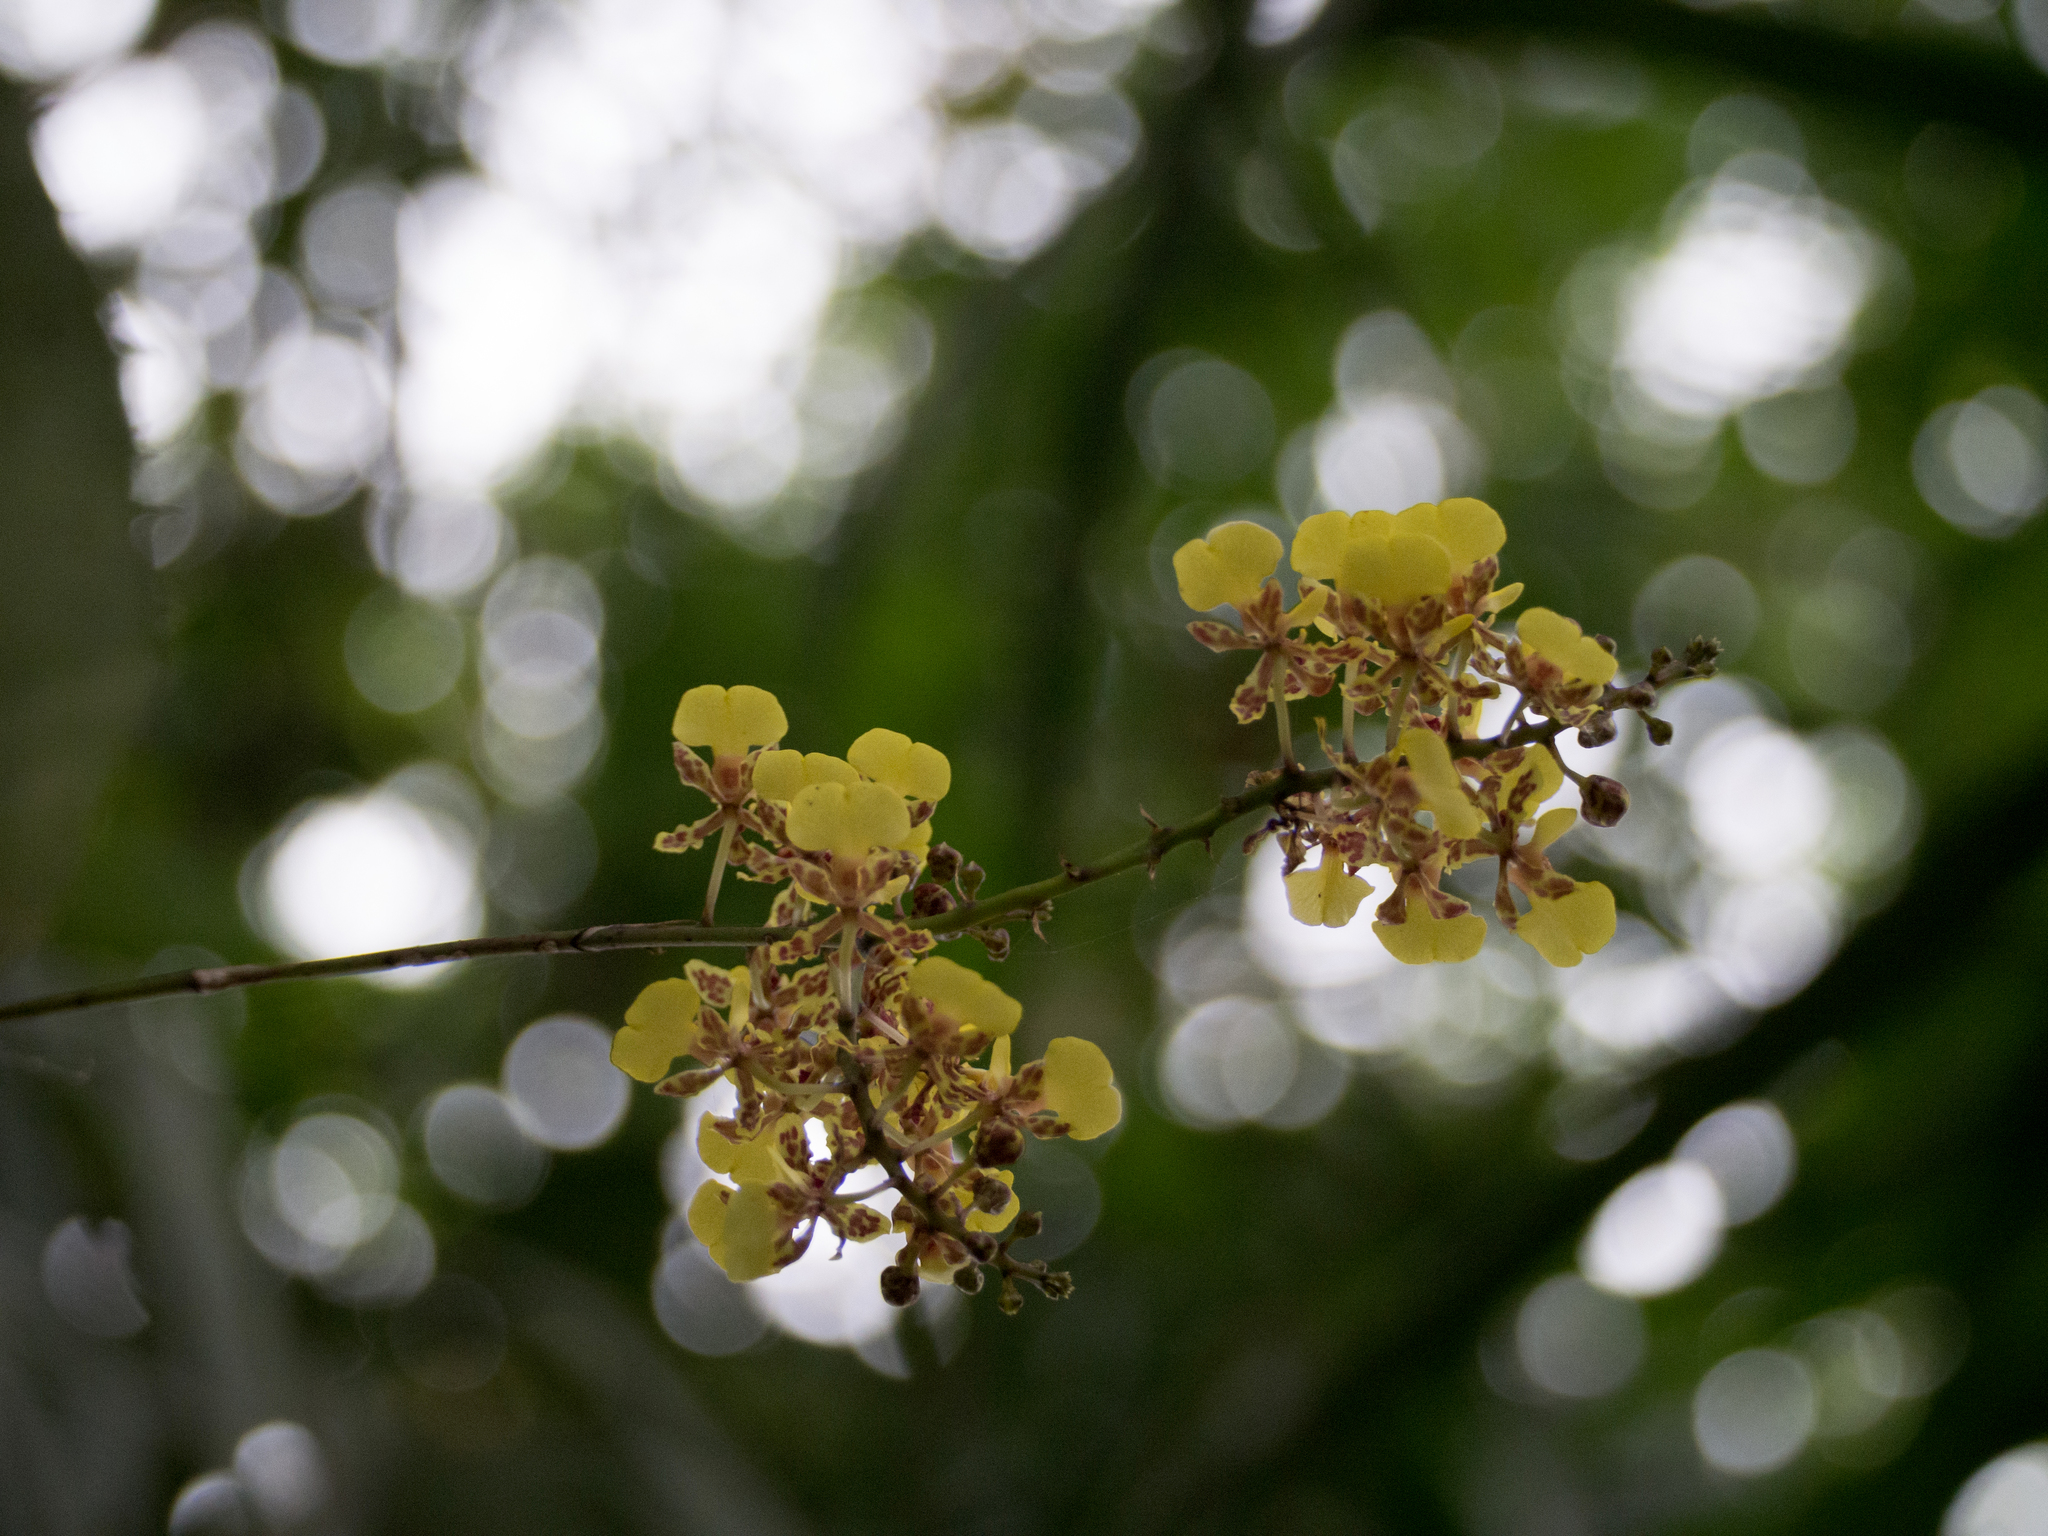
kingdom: Plantae
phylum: Tracheophyta
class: Liliopsida
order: Asparagales
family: Orchidaceae
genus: Trichocentrum
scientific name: Trichocentrum ascendens
